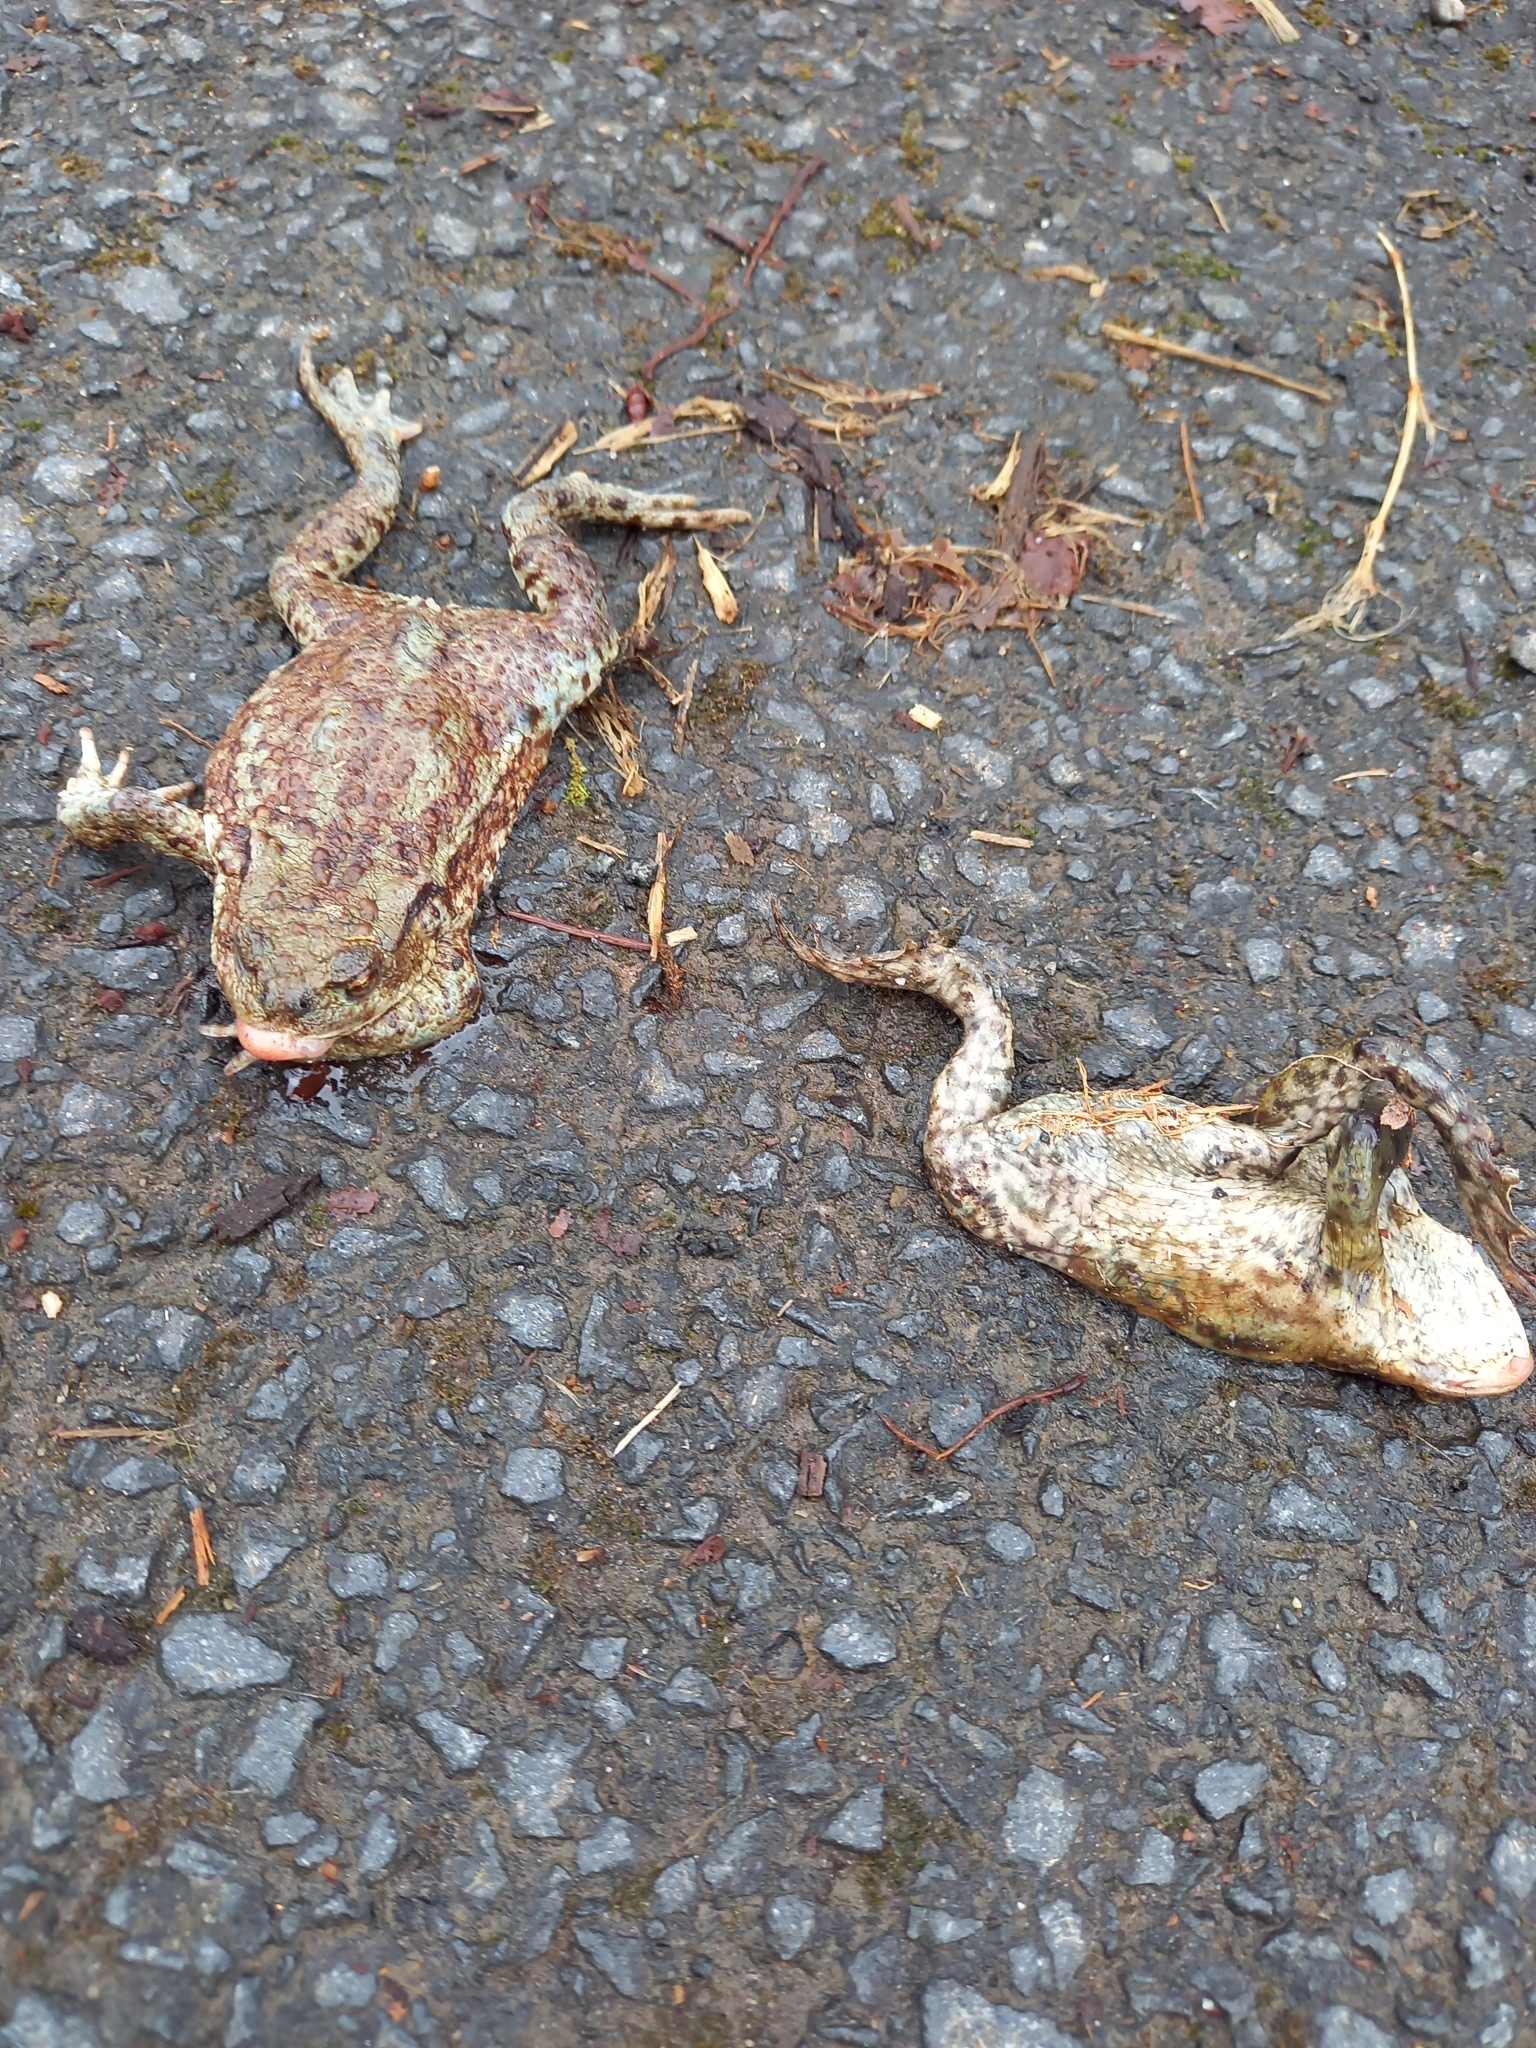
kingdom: Animalia
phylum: Chordata
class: Amphibia
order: Anura
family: Bufonidae
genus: Bufo
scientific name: Bufo bufo
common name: Common toad
